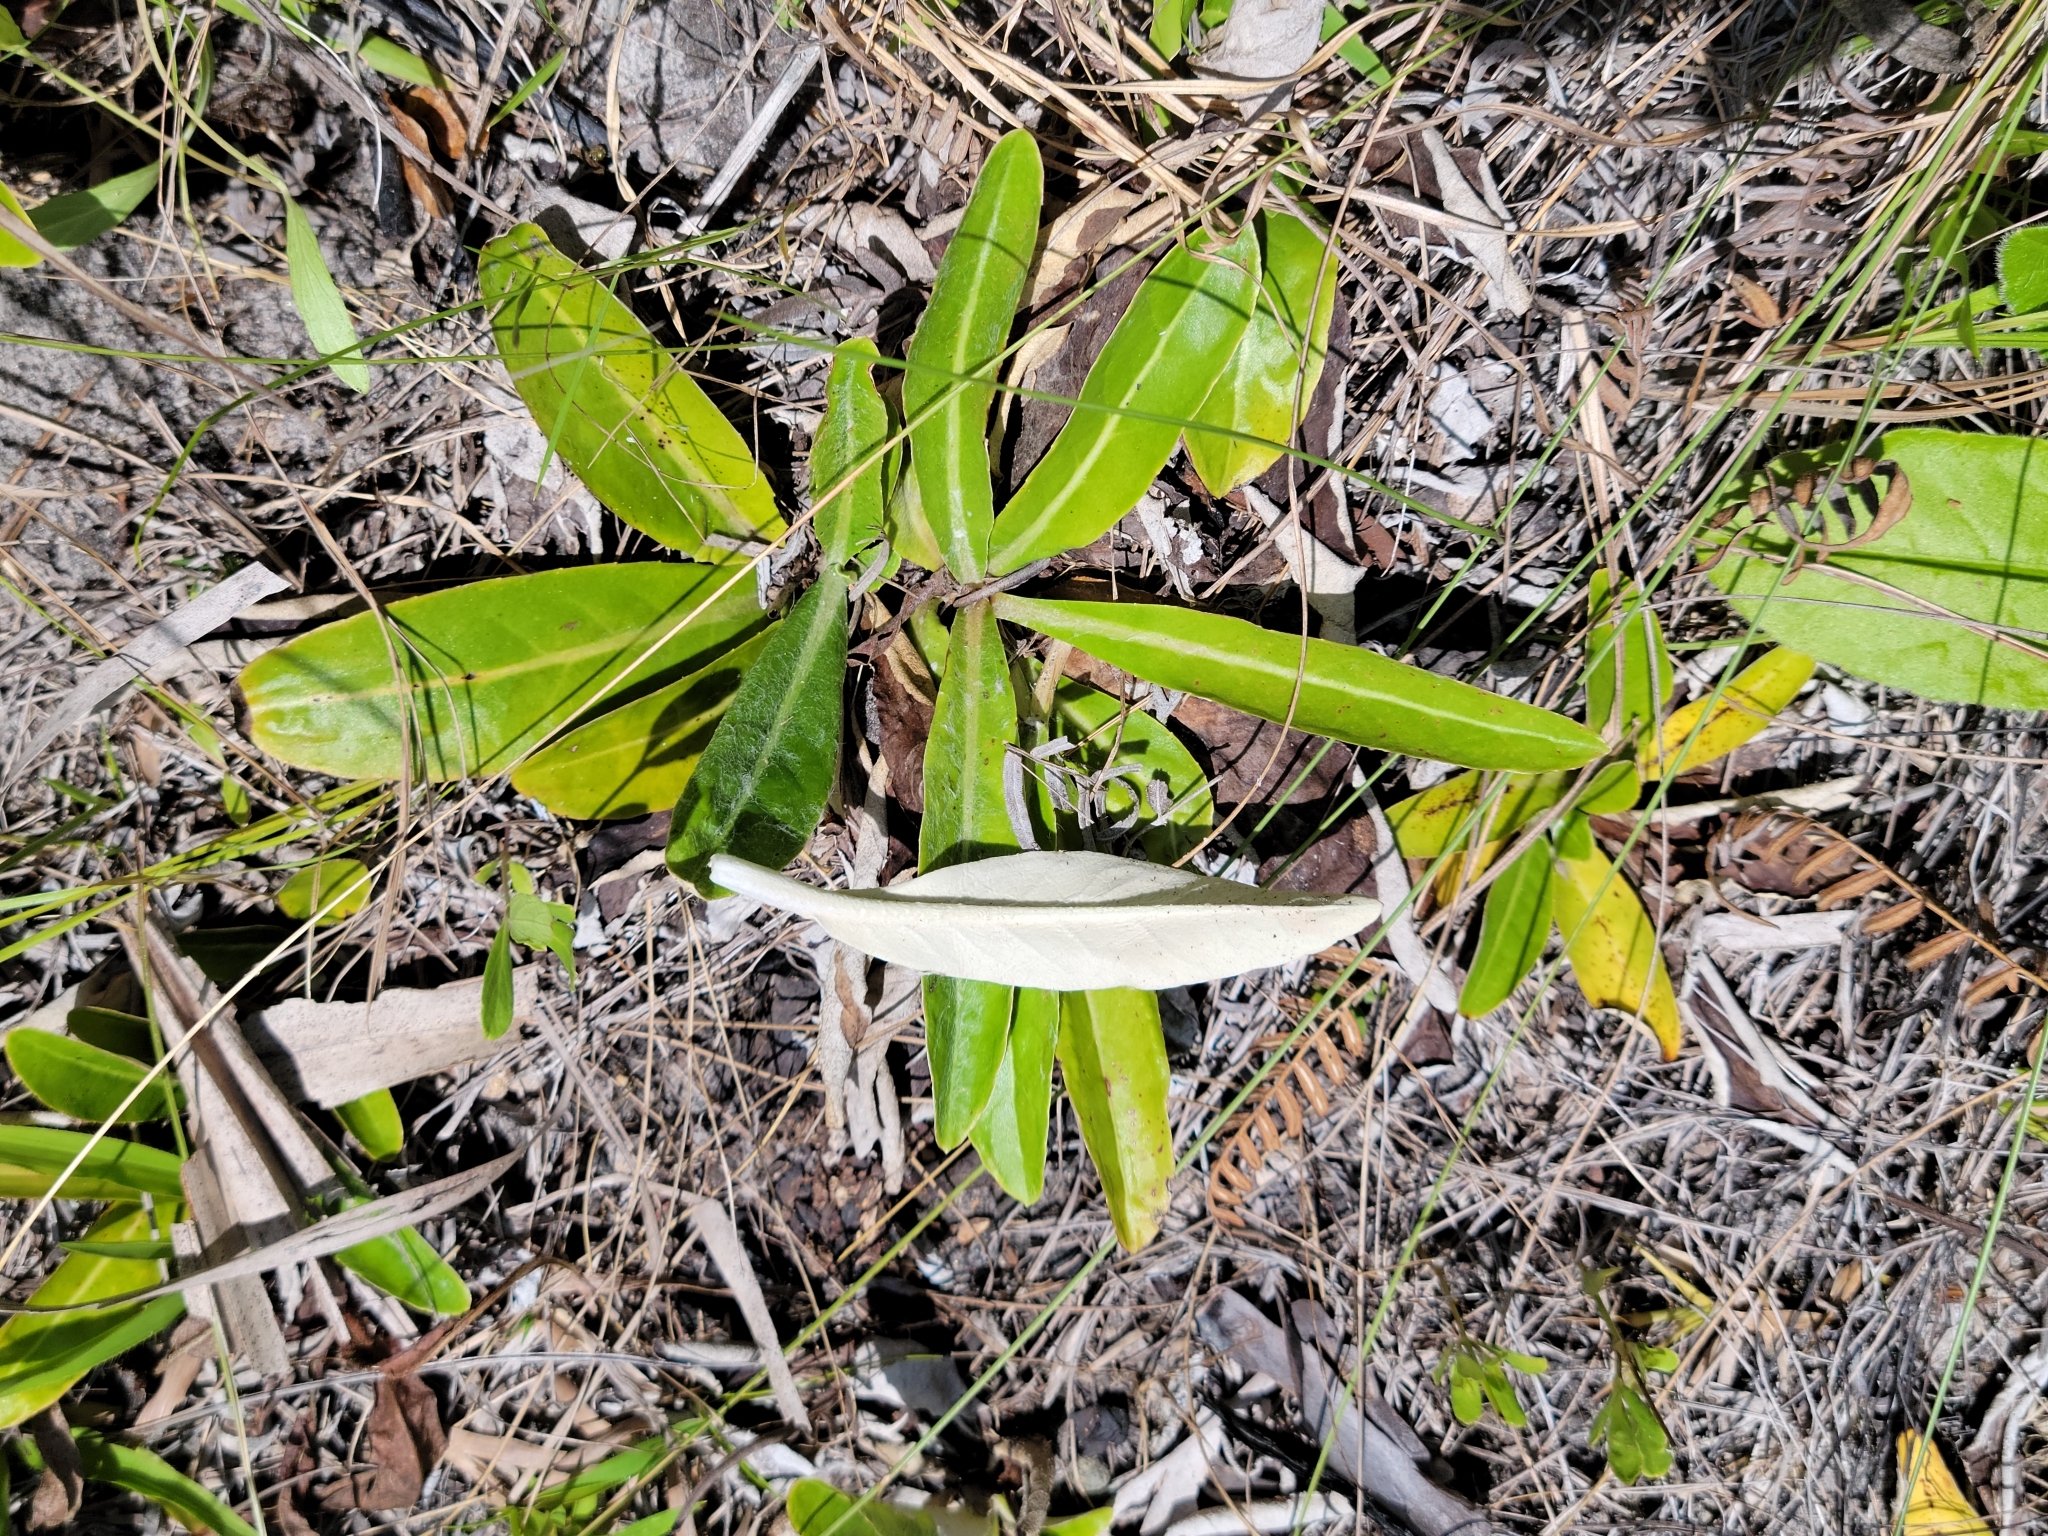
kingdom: Plantae
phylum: Tracheophyta
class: Magnoliopsida
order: Asterales
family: Asteraceae
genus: Chaptalia
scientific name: Chaptalia tomentosa
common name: Woolly sunbonnet
